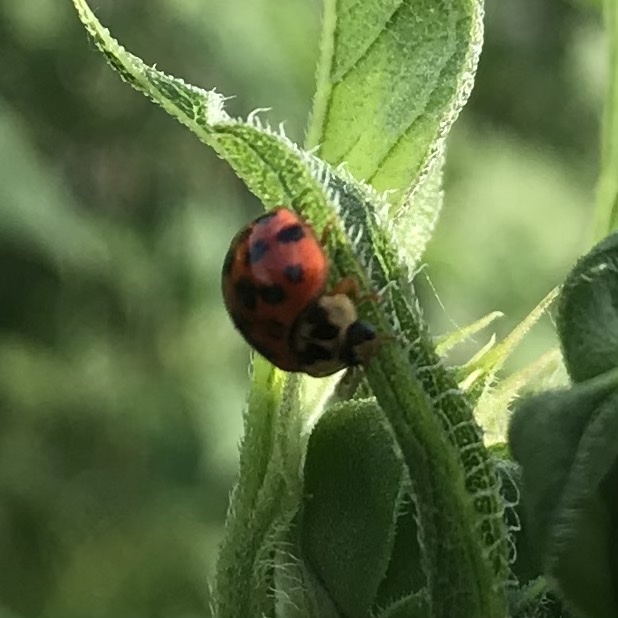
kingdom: Animalia
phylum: Arthropoda
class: Insecta
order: Coleoptera
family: Coccinellidae
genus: Harmonia
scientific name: Harmonia axyridis
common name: Harlequin ladybird
